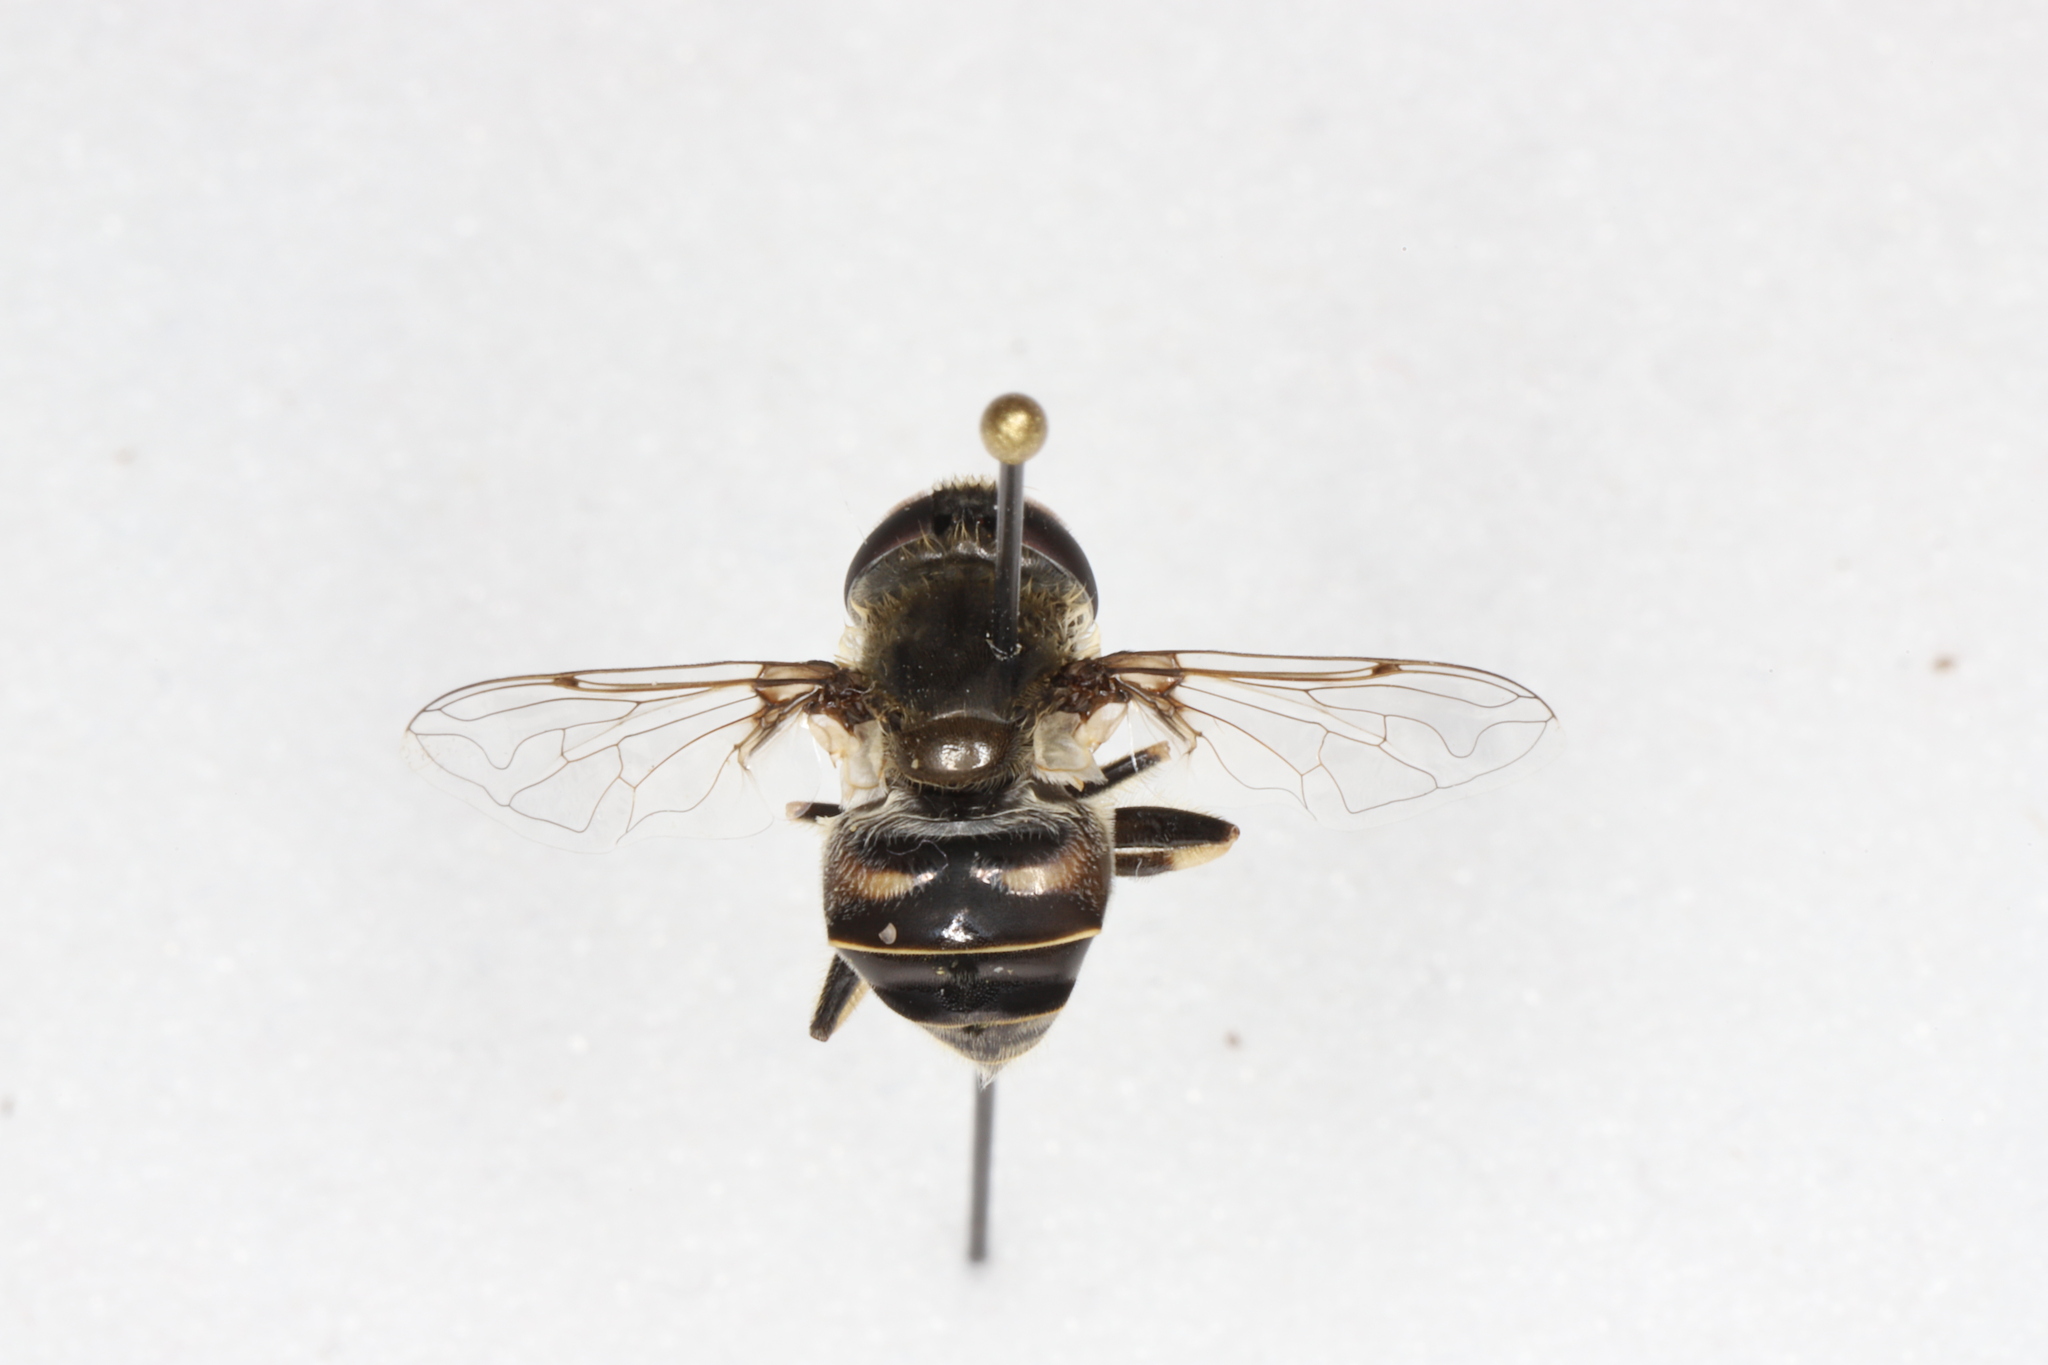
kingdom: Animalia
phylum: Arthropoda
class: Insecta
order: Diptera
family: Syrphidae
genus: Eristalis
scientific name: Eristalis dimidiata
